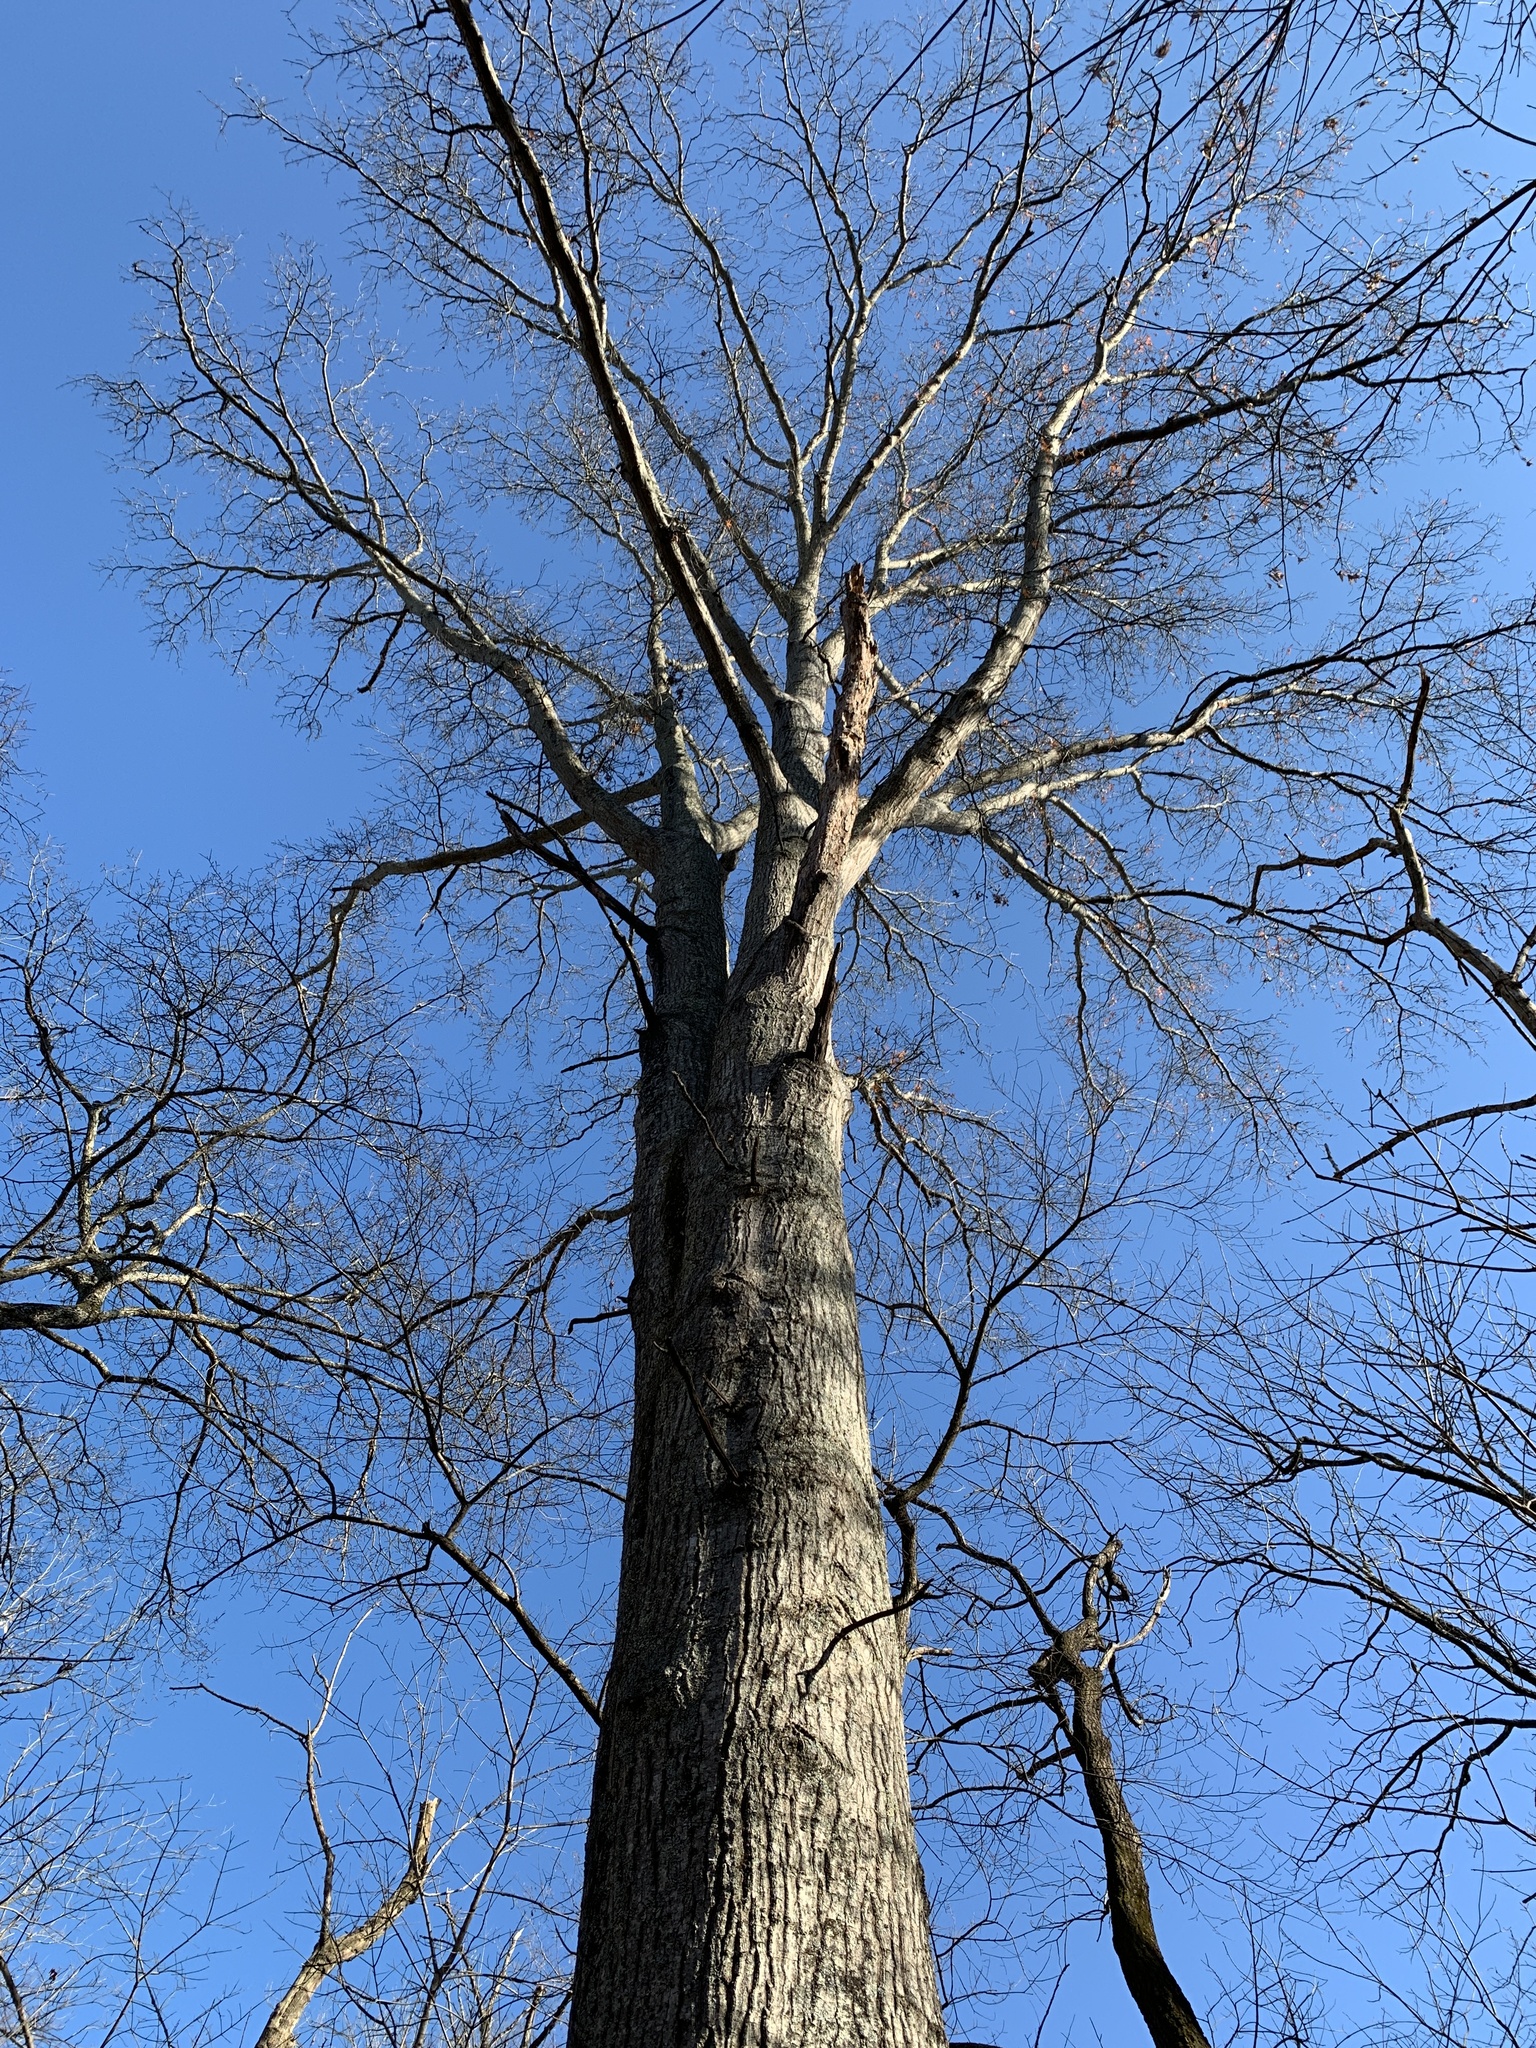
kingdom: Plantae
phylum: Tracheophyta
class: Magnoliopsida
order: Fagales
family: Fagaceae
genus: Quercus
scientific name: Quercus palustris
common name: Pin oak
